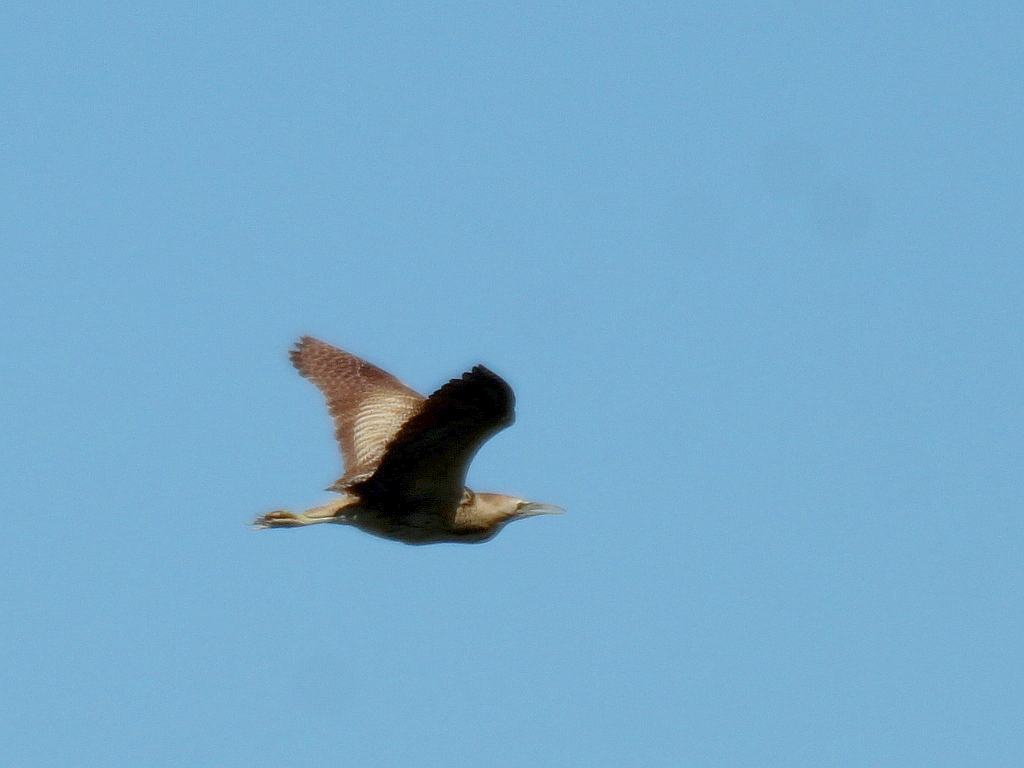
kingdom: Animalia
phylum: Chordata
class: Aves
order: Pelecaniformes
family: Ardeidae
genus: Botaurus
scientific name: Botaurus stellaris
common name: Eurasian bittern
